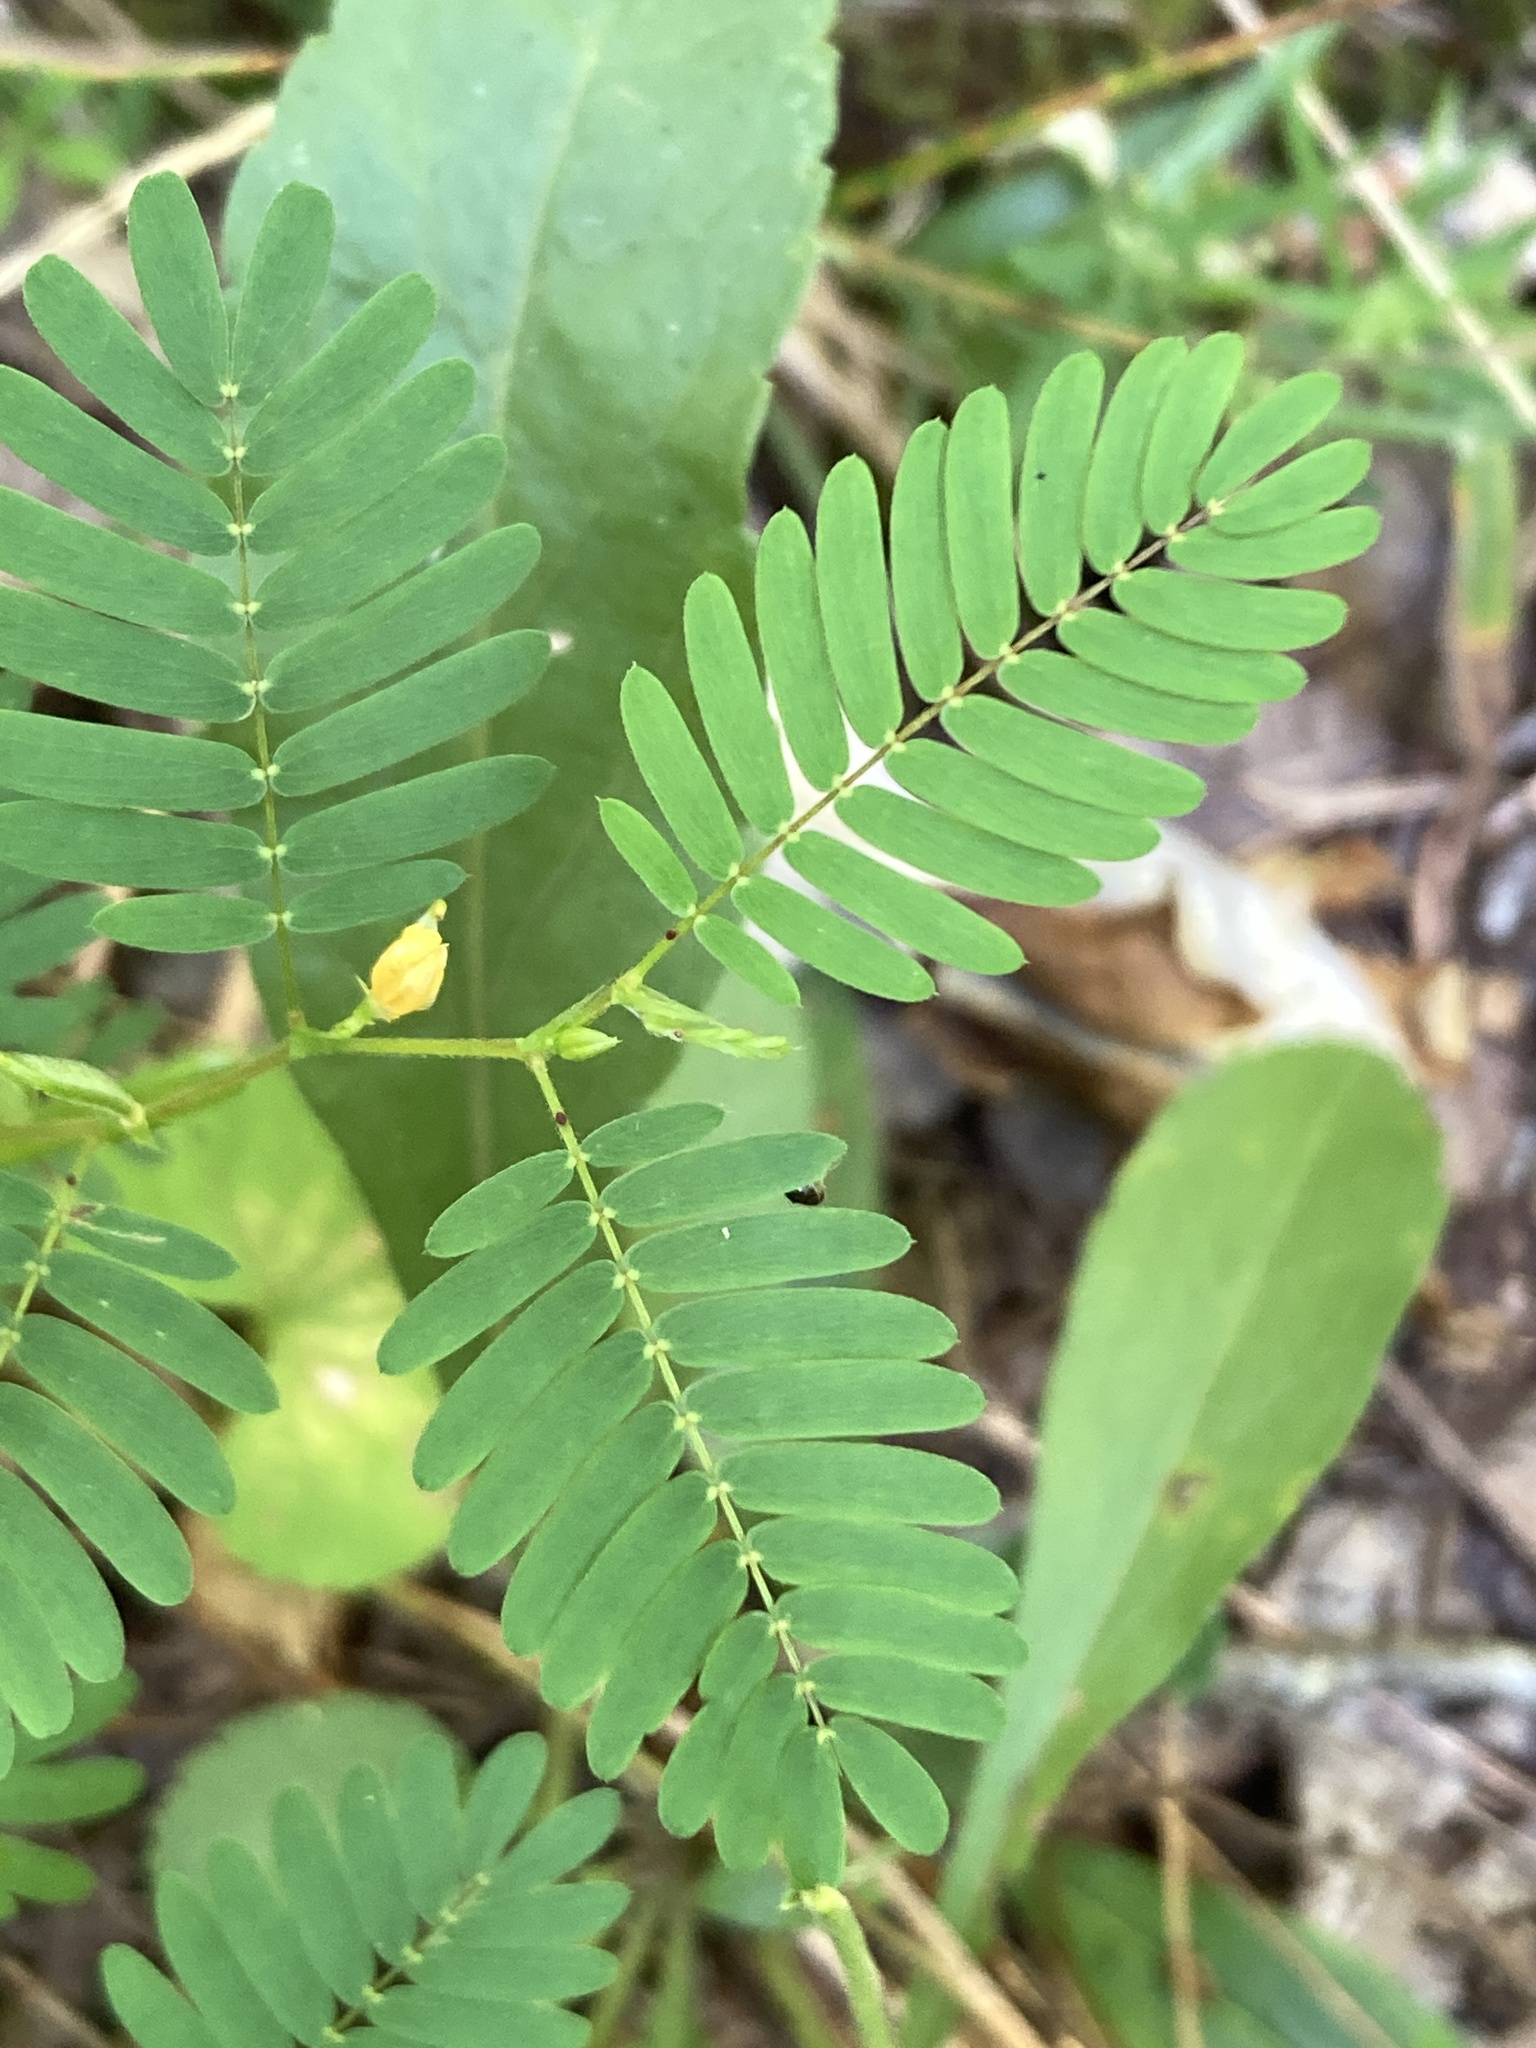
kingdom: Plantae
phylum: Tracheophyta
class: Magnoliopsida
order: Fabales
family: Fabaceae
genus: Chamaecrista
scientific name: Chamaecrista nictitans
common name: Sensitive cassia
